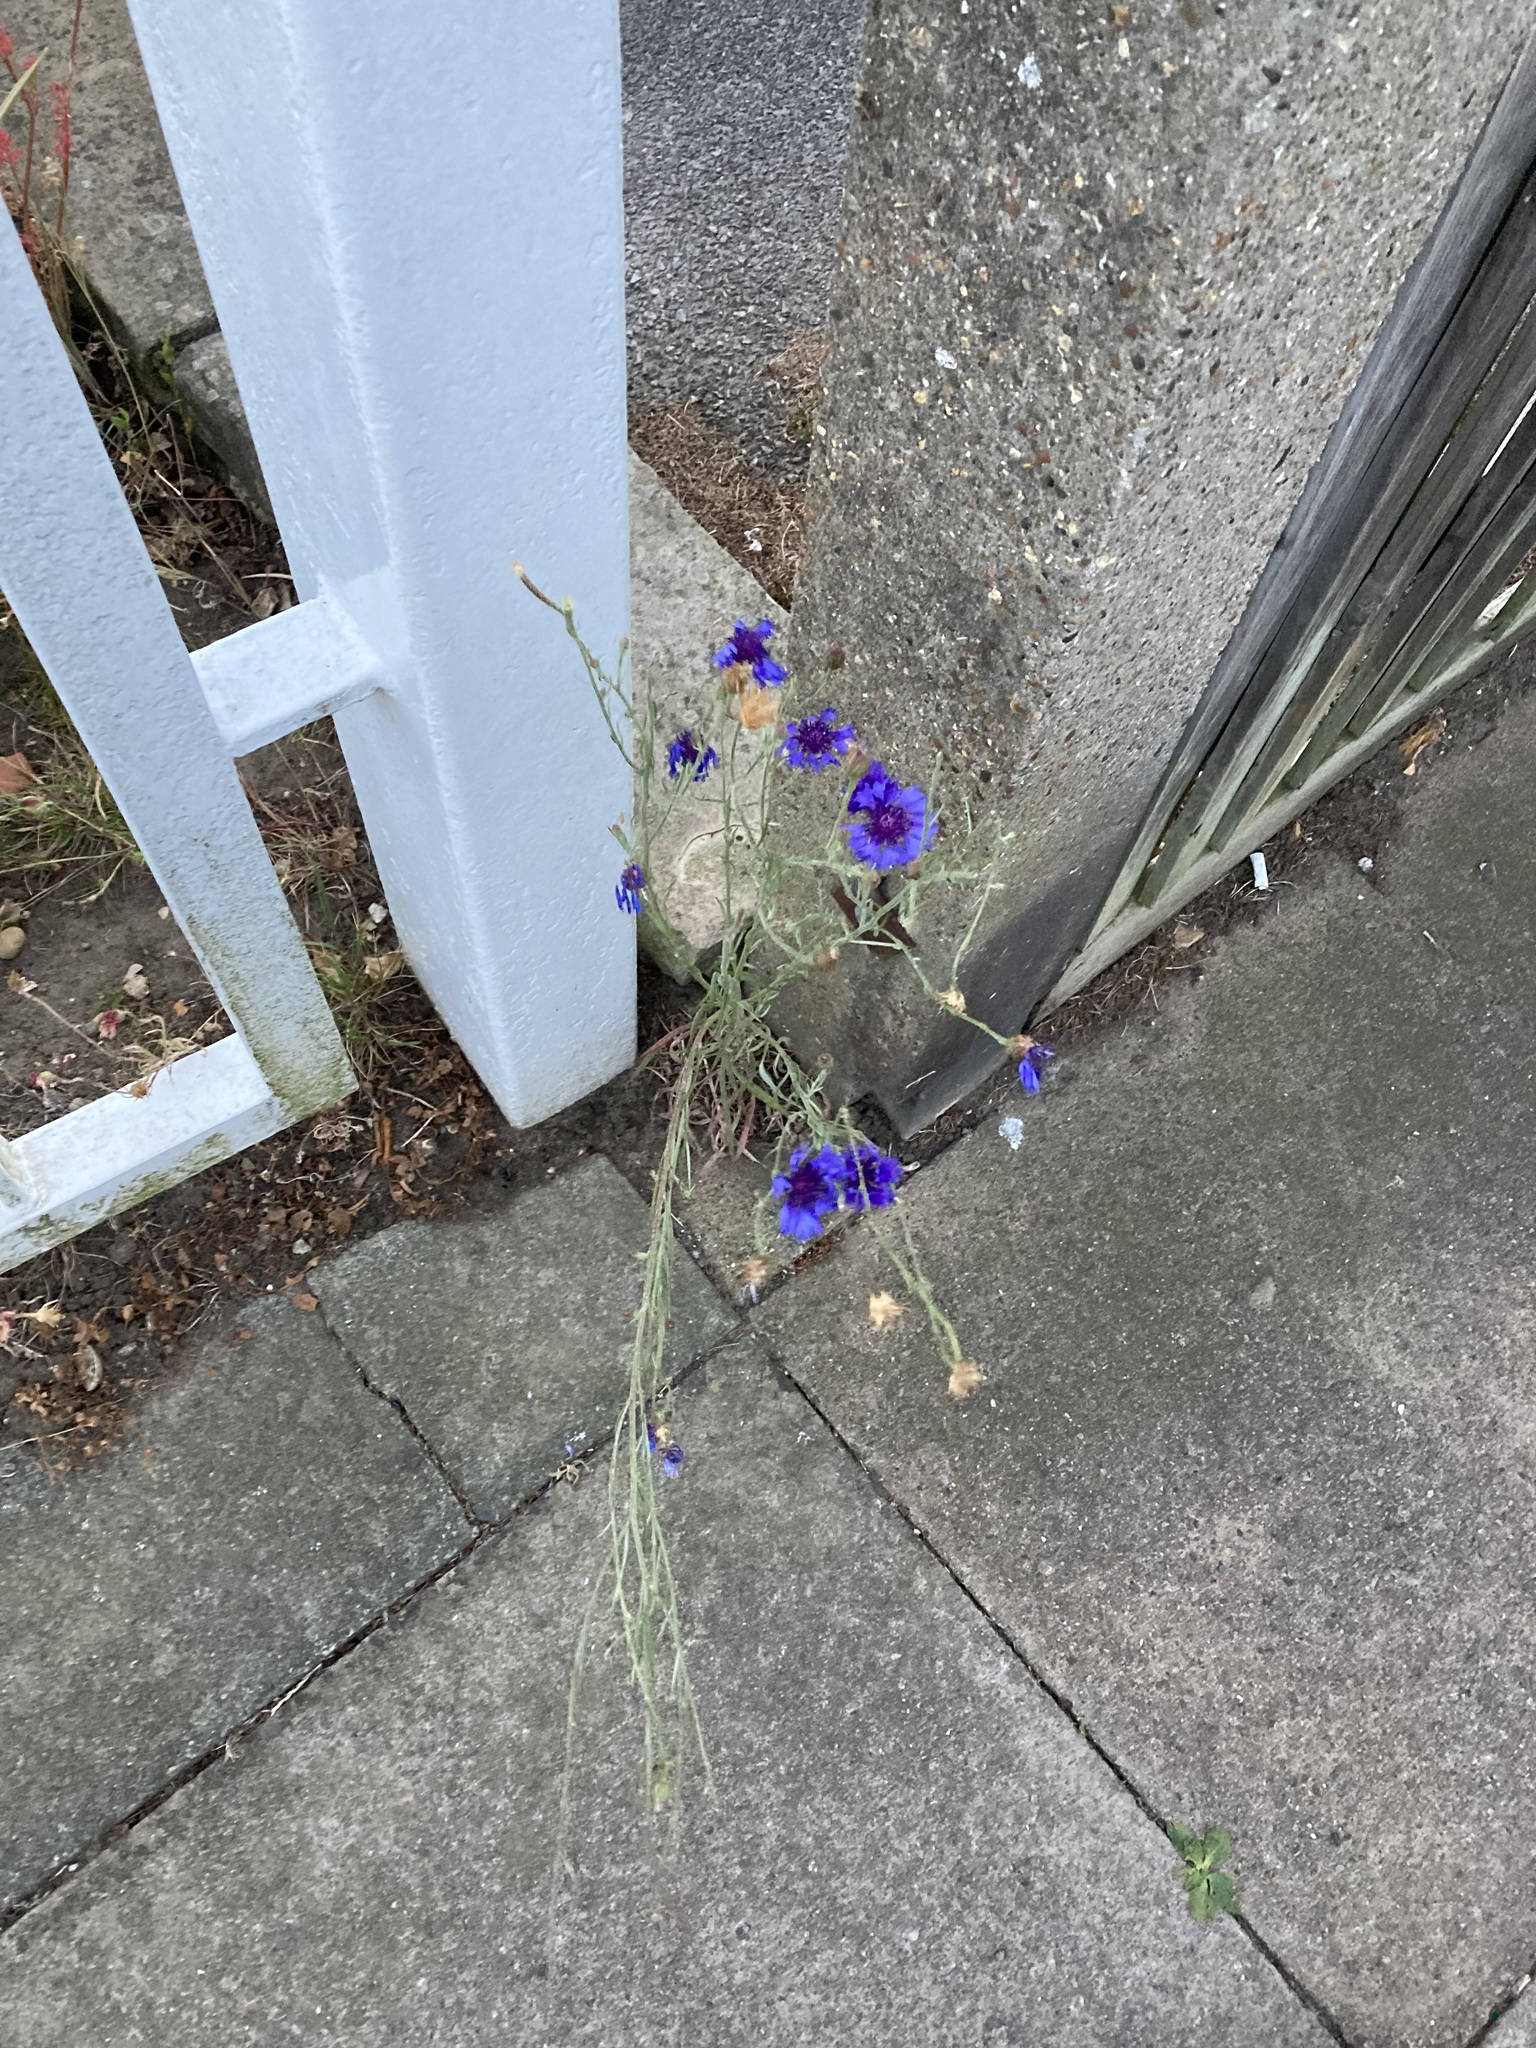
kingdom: Plantae
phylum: Tracheophyta
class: Magnoliopsida
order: Asterales
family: Asteraceae
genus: Centaurea
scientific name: Centaurea cyanus
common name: Cornflower
